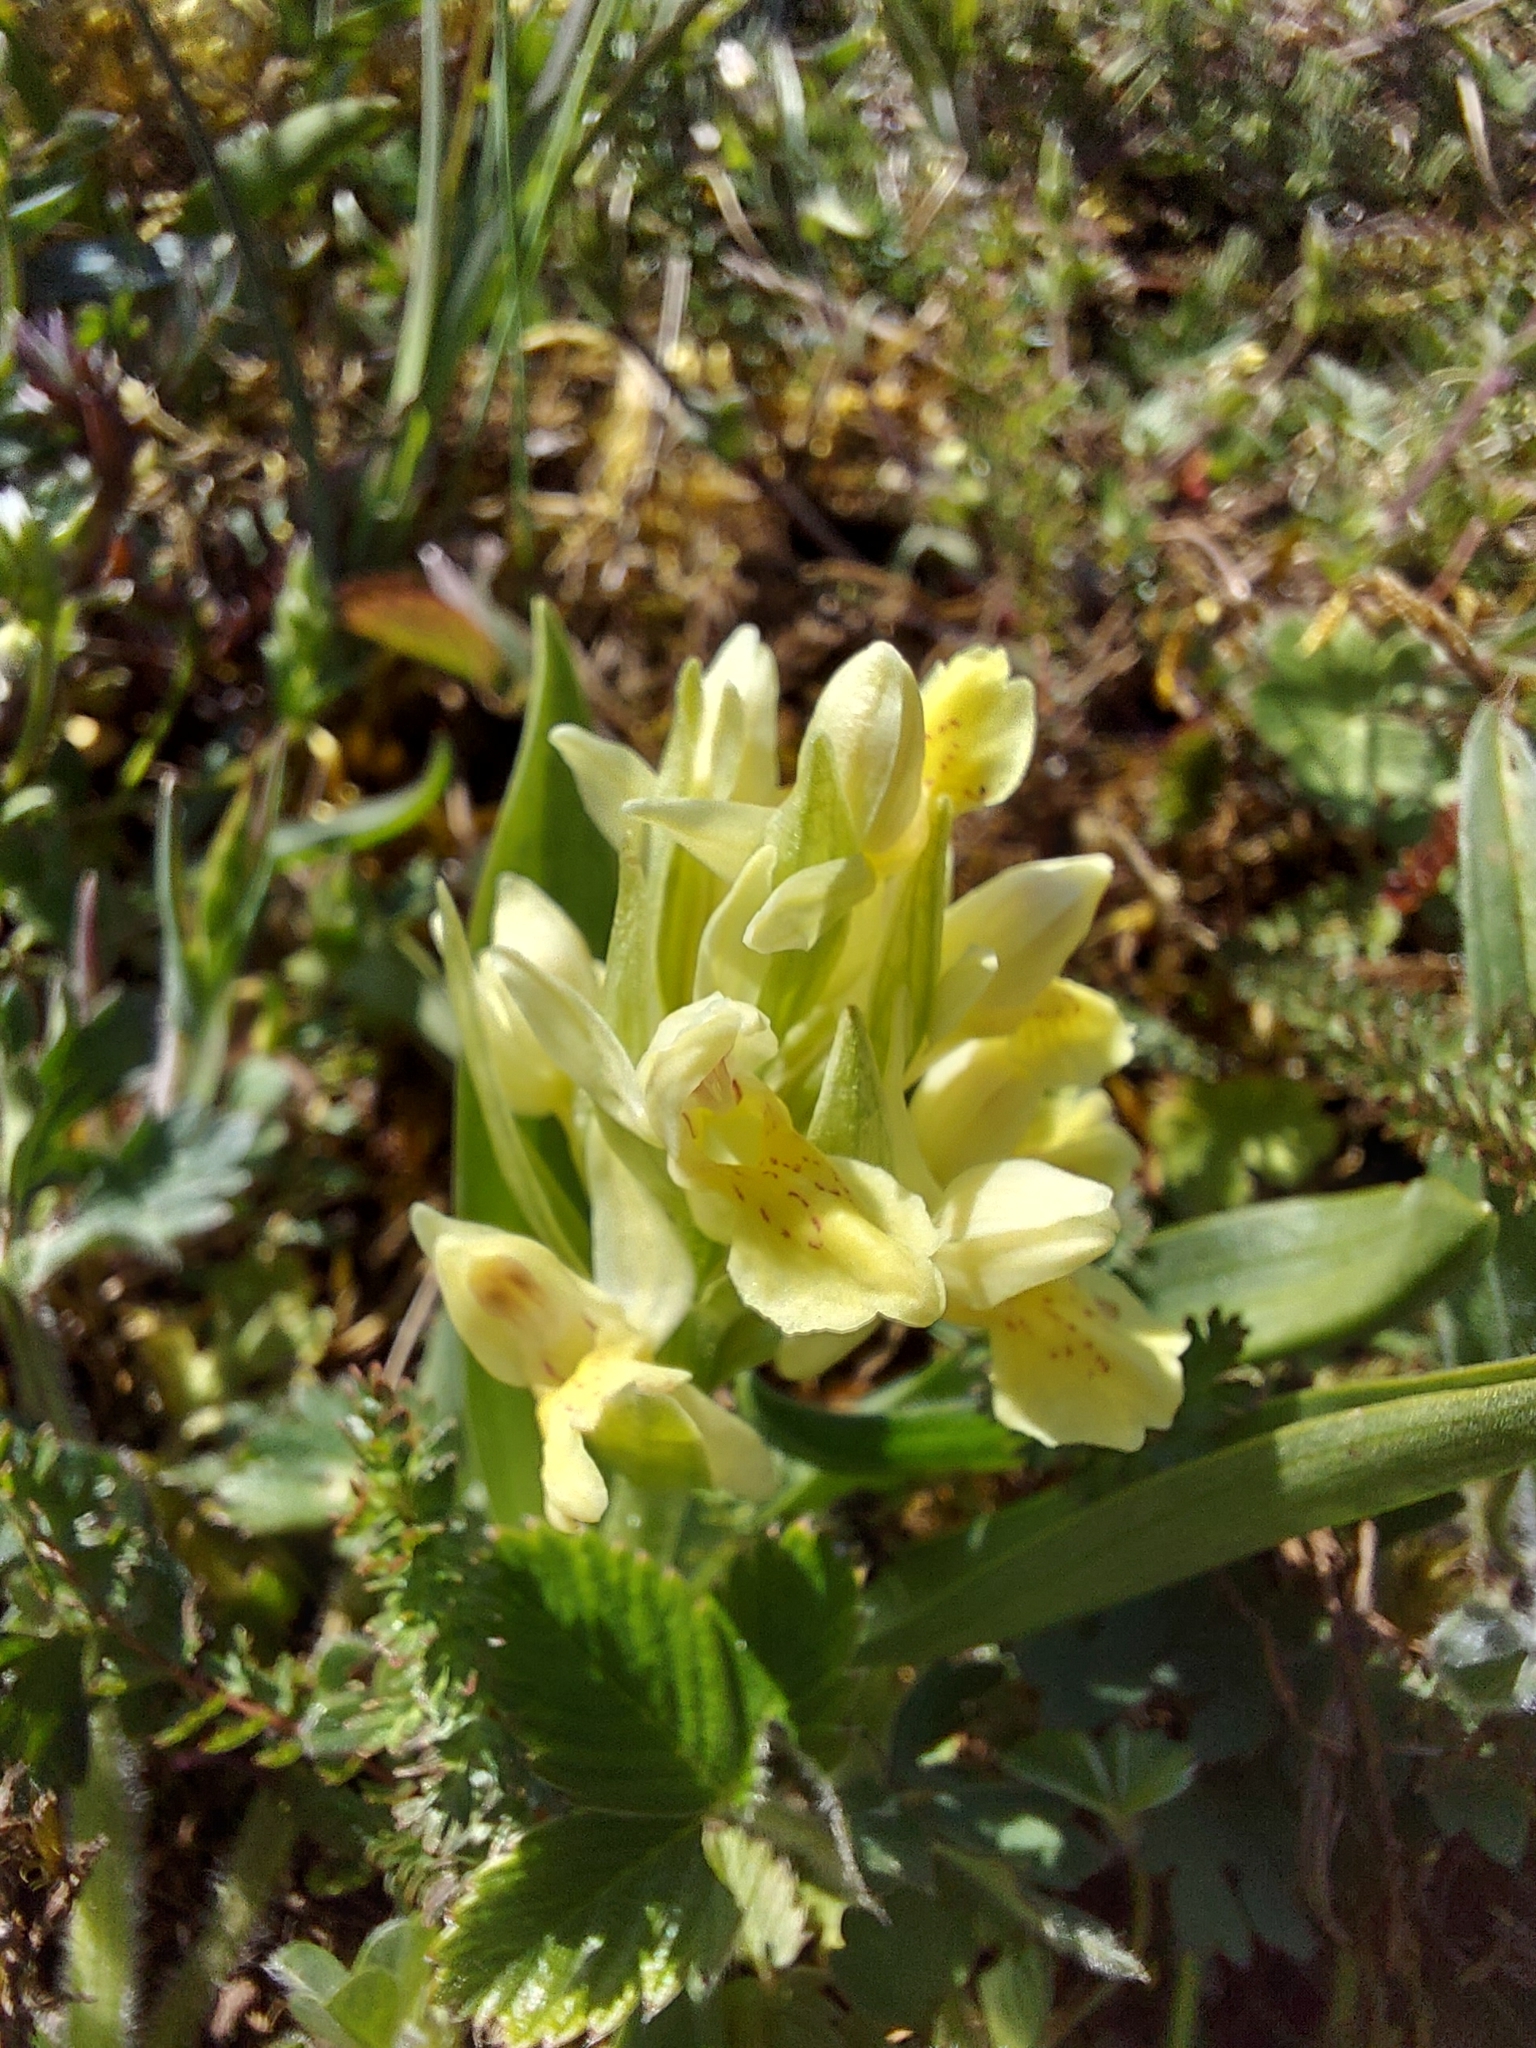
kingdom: Plantae
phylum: Tracheophyta
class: Liliopsida
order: Asparagales
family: Orchidaceae
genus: Dactylorhiza
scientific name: Dactylorhiza sambucina
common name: Elder-flowered orchid
